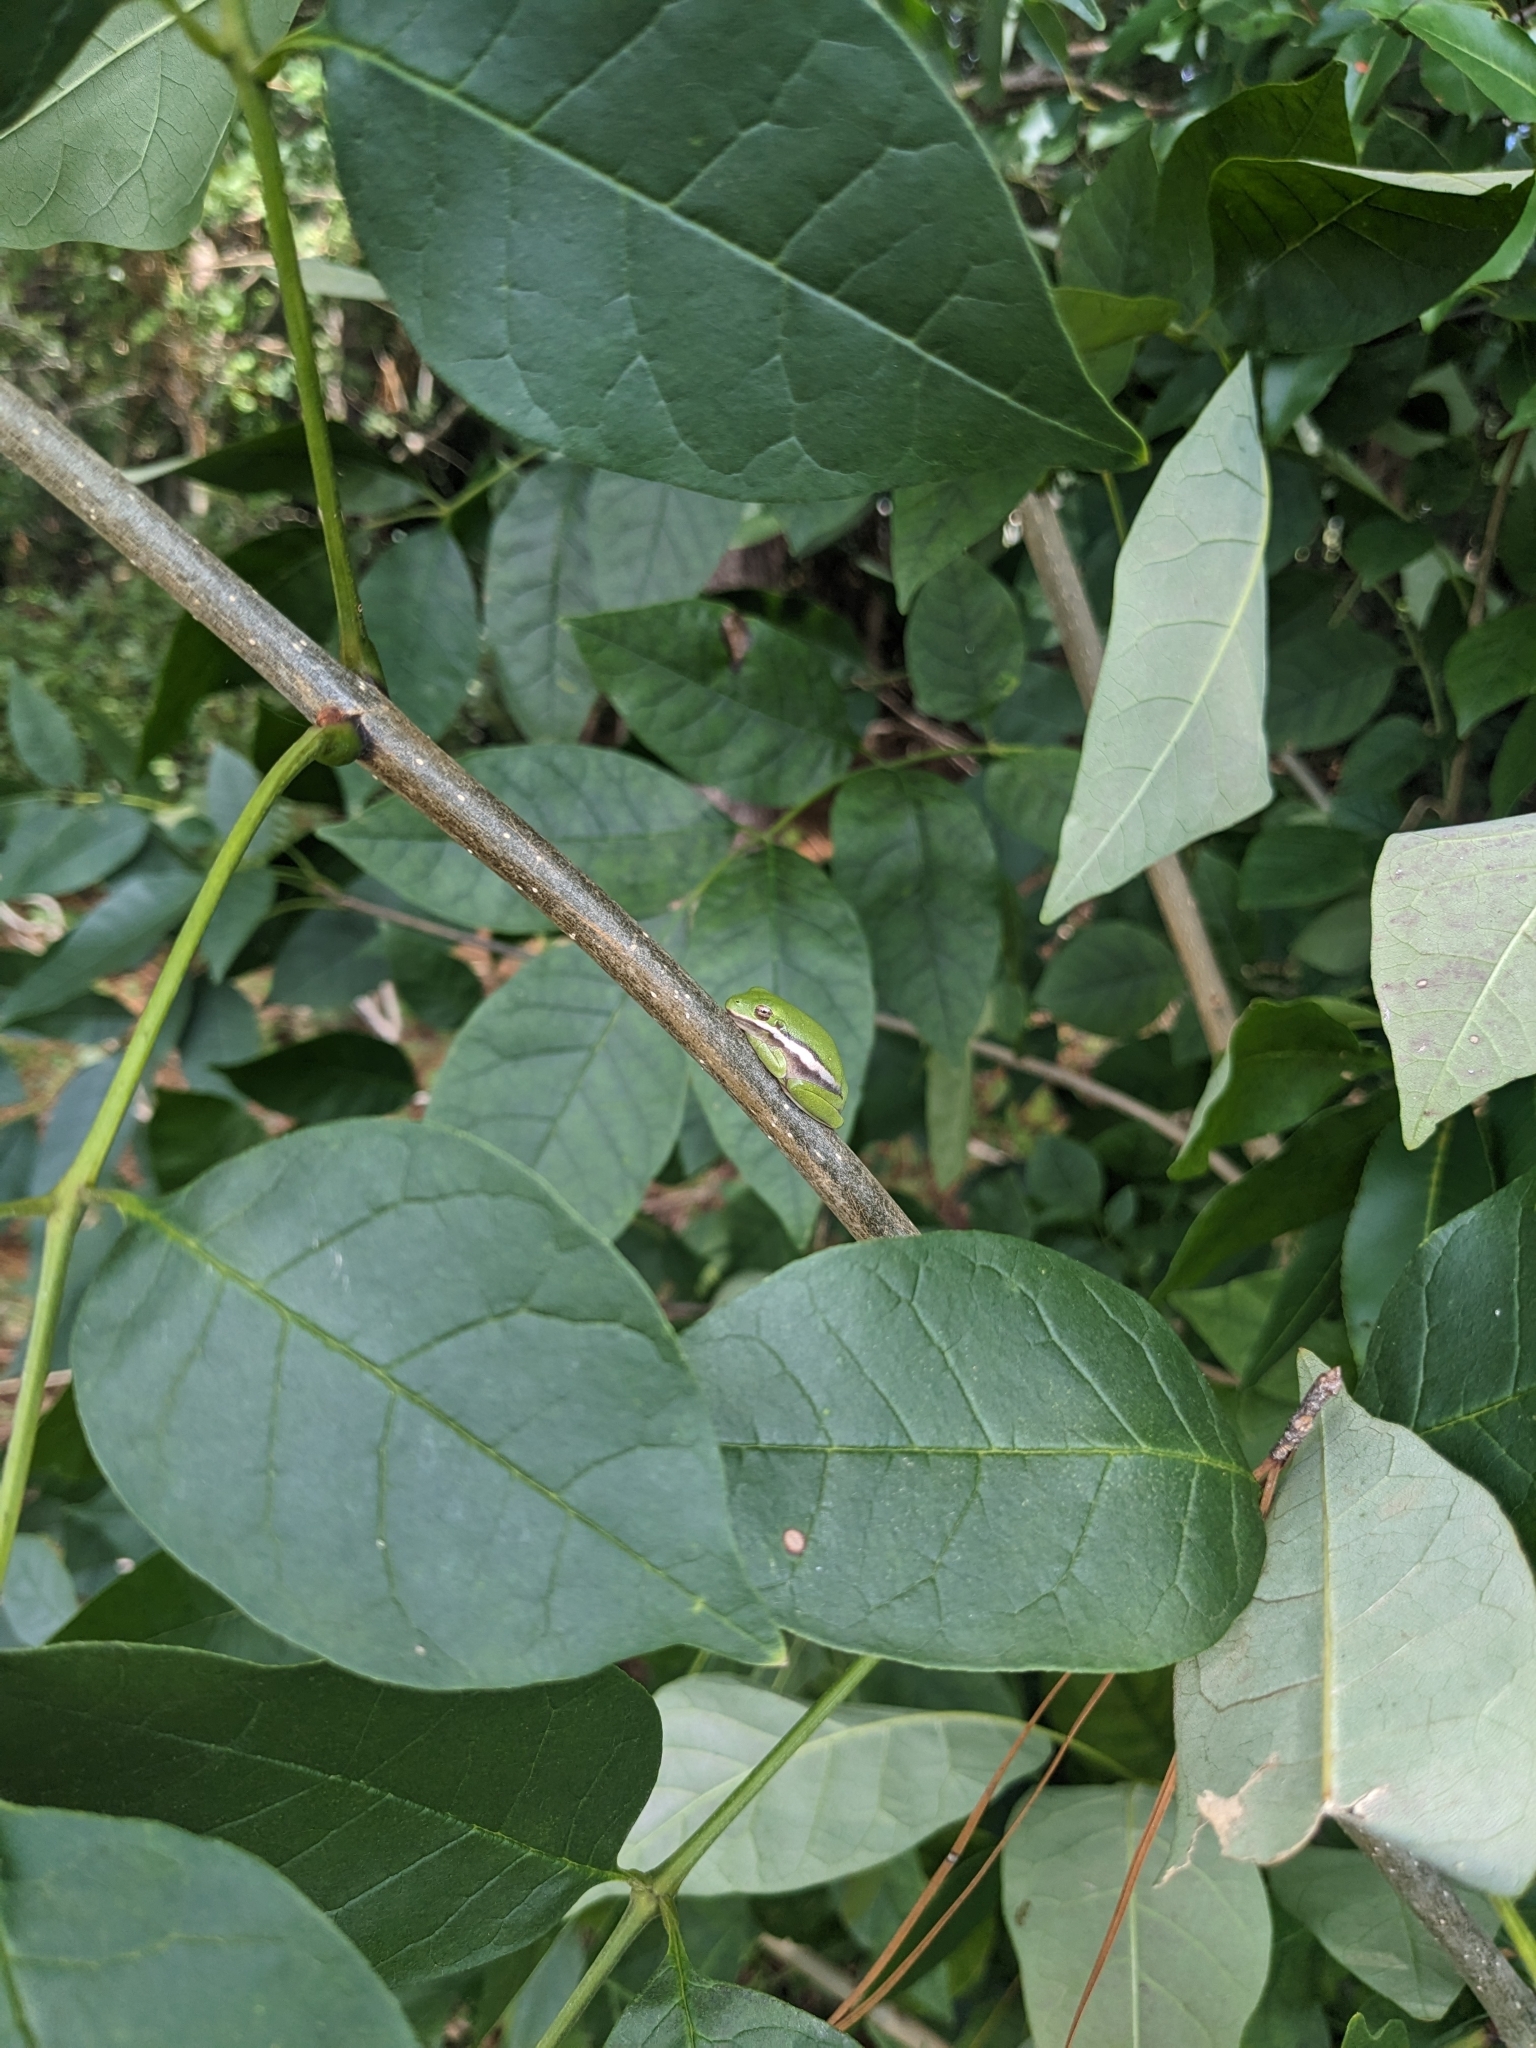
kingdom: Animalia
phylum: Chordata
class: Amphibia
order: Anura
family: Hylidae
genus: Dryophytes
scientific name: Dryophytes cinereus
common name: Green treefrog
